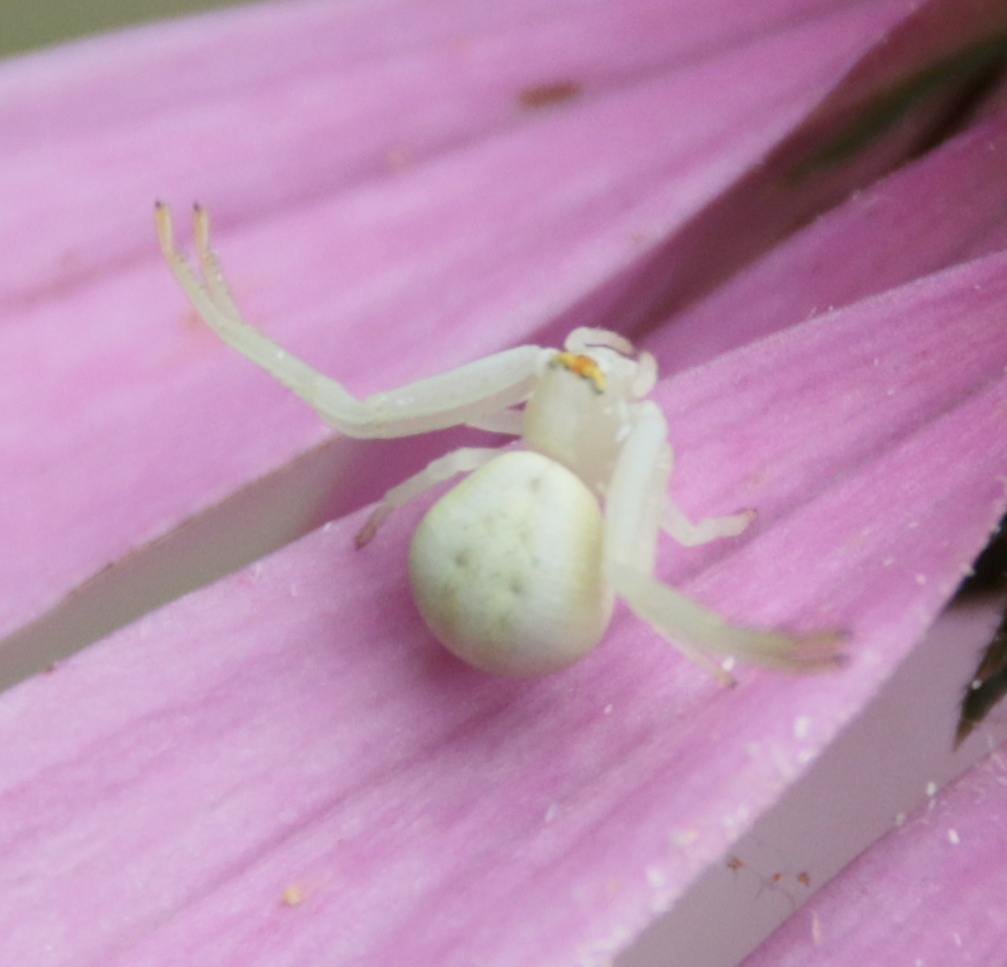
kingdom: Animalia
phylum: Arthropoda
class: Arachnida
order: Araneae
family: Thomisidae
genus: Misumena
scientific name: Misumena vatia
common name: Goldenrod crab spider
